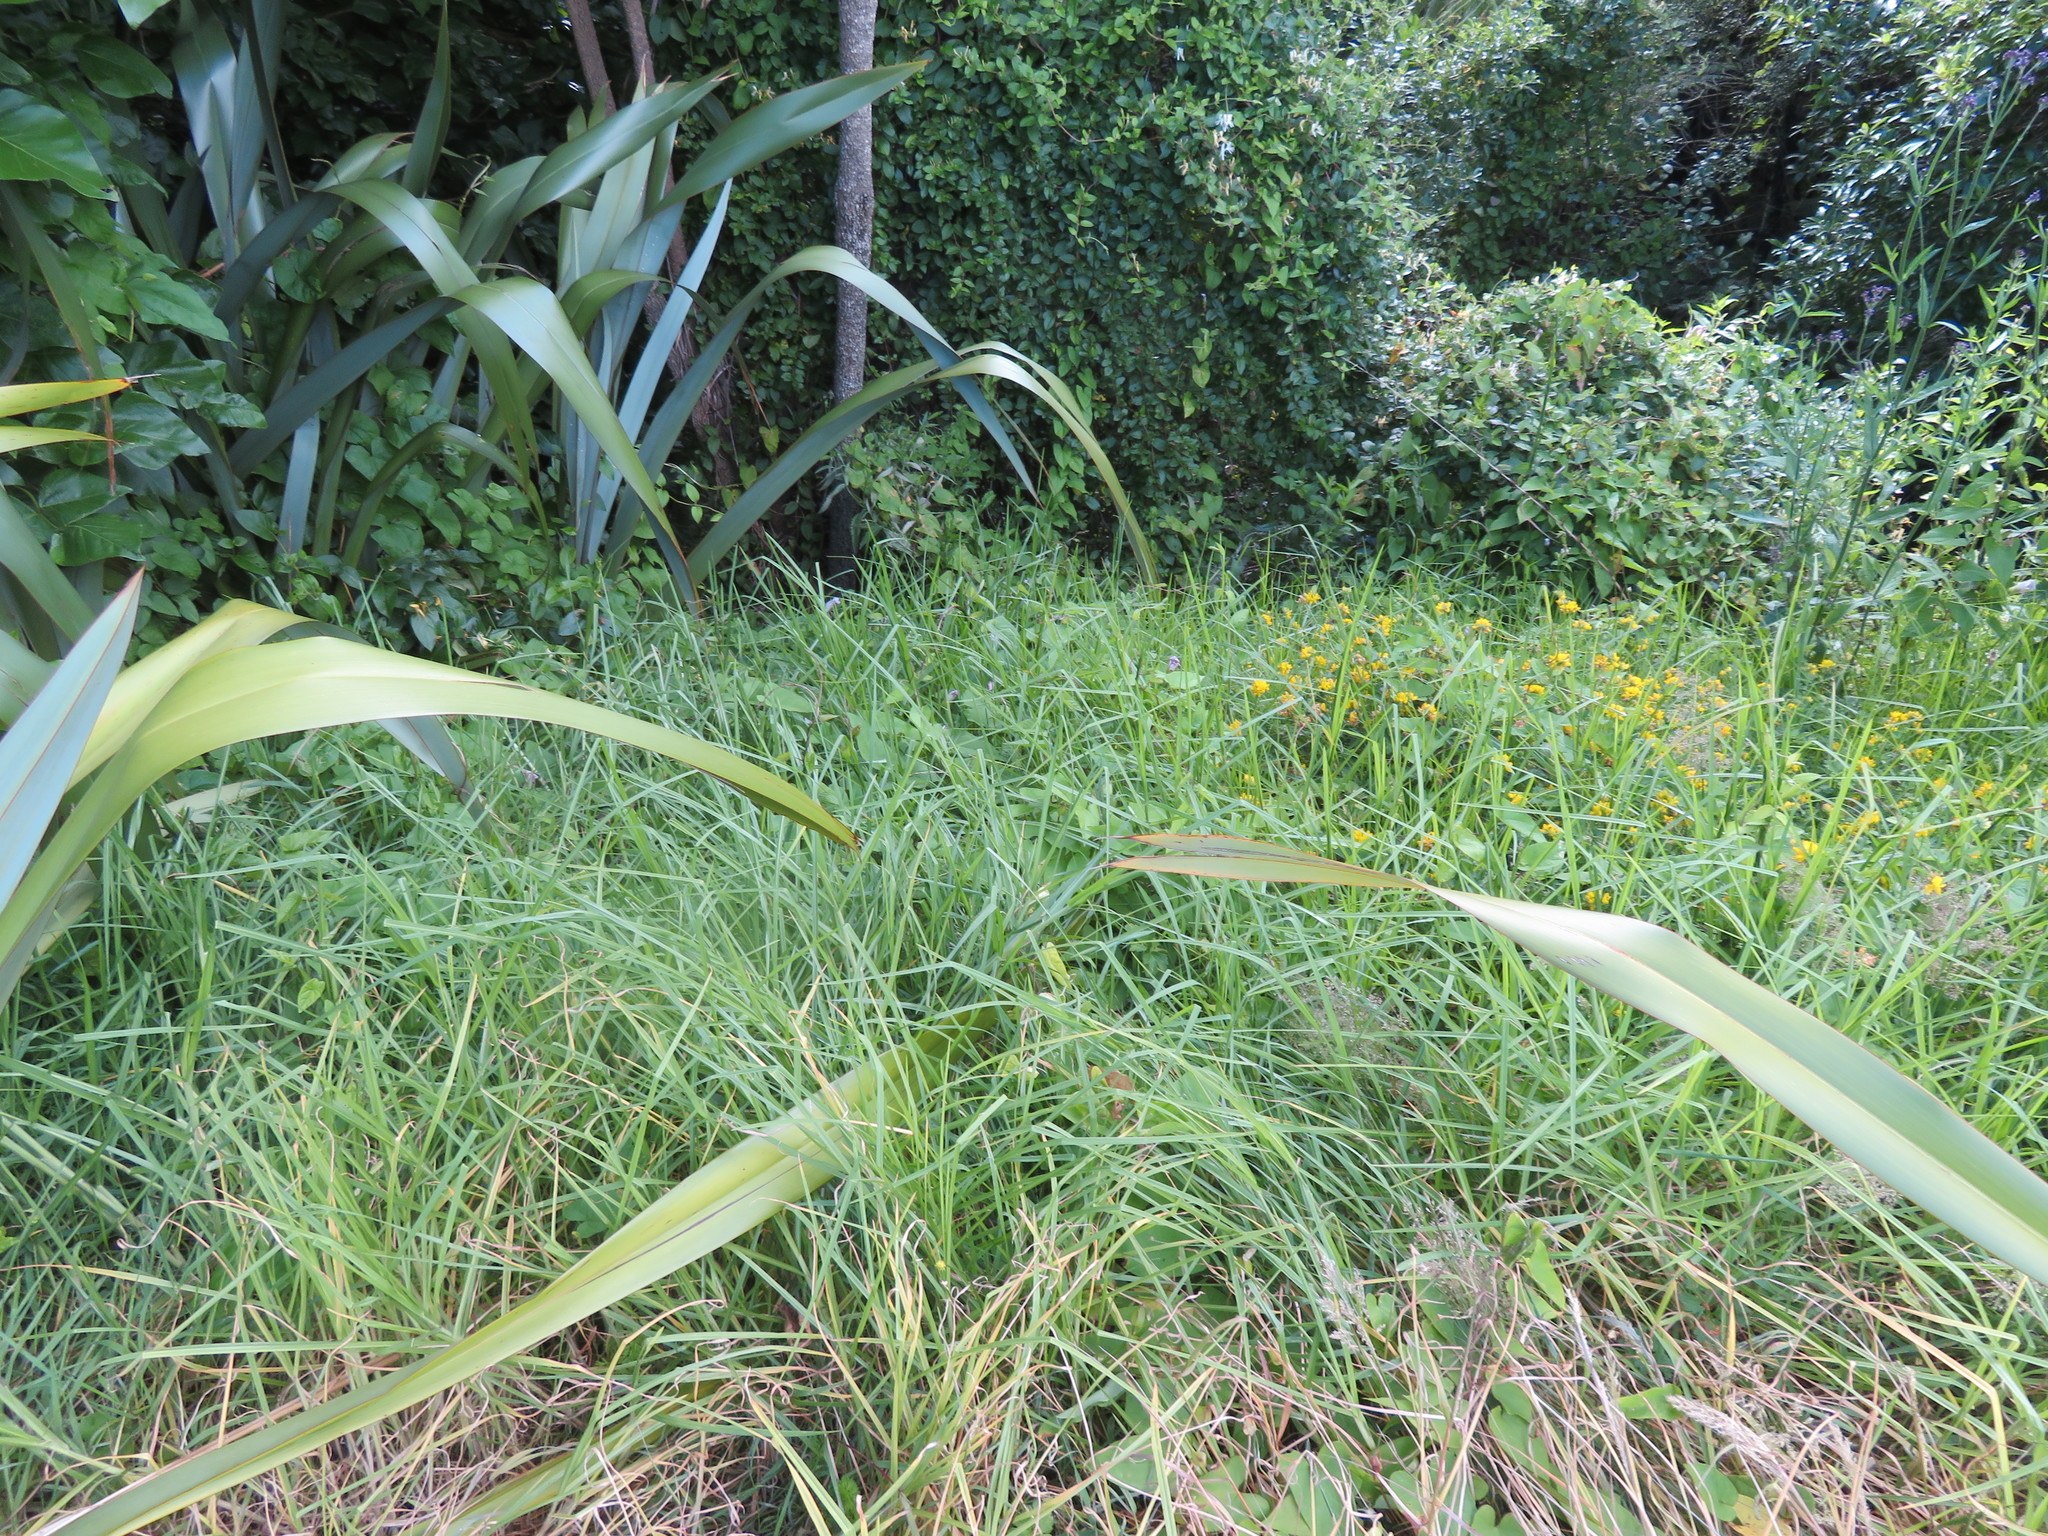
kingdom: Plantae
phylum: Tracheophyta
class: Liliopsida
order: Poales
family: Poaceae
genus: Cenchrus
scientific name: Cenchrus clandestinus
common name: Kikuyugrass
